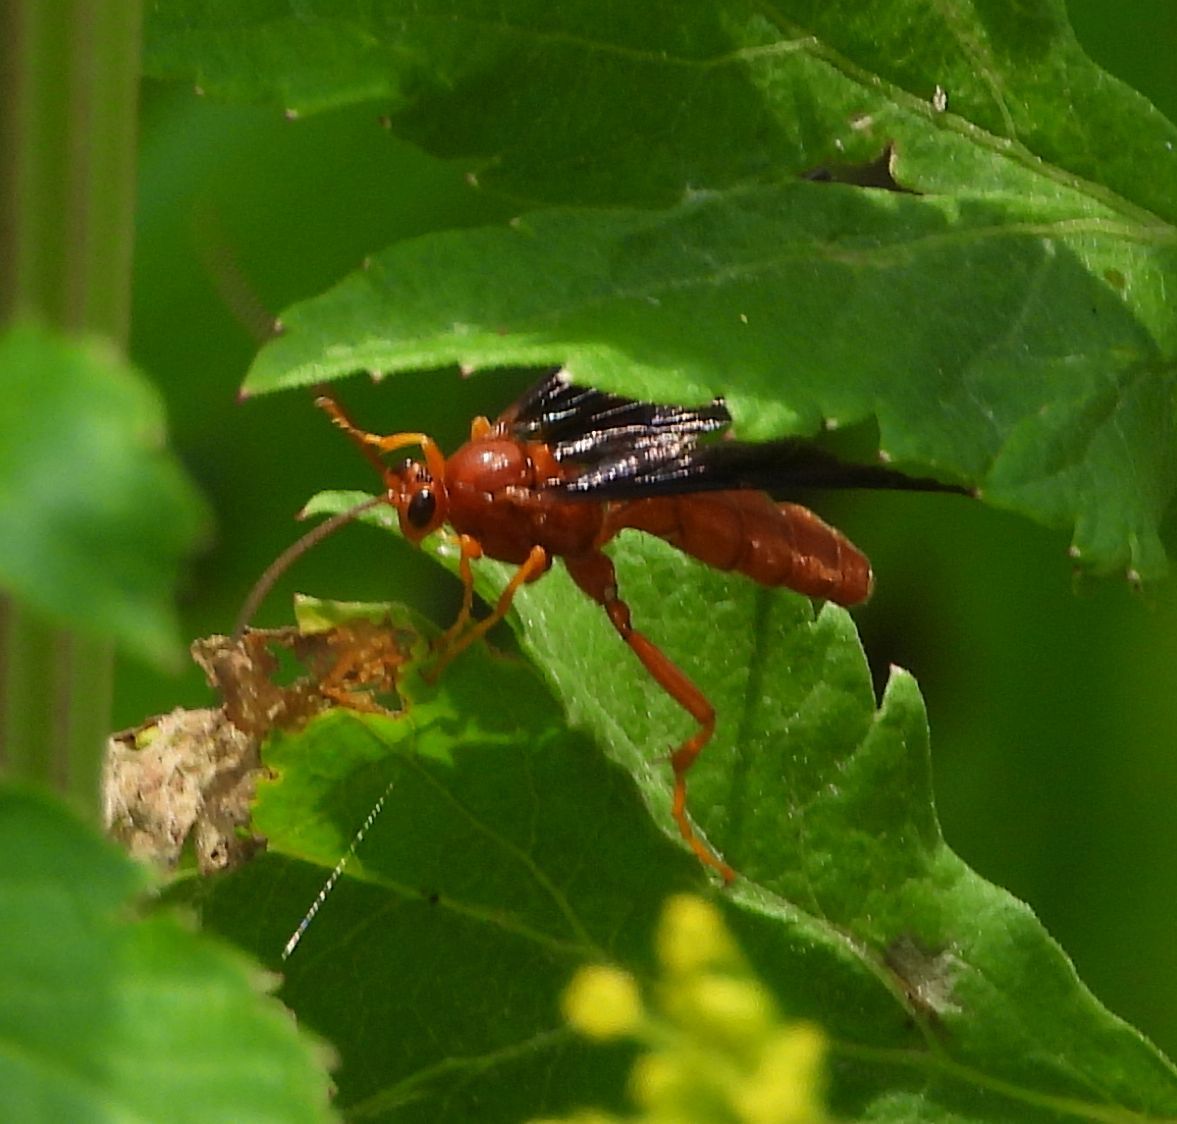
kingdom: Animalia
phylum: Arthropoda
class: Insecta
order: Hymenoptera
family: Ichneumonidae
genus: Trogus
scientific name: Trogus vulpinus
